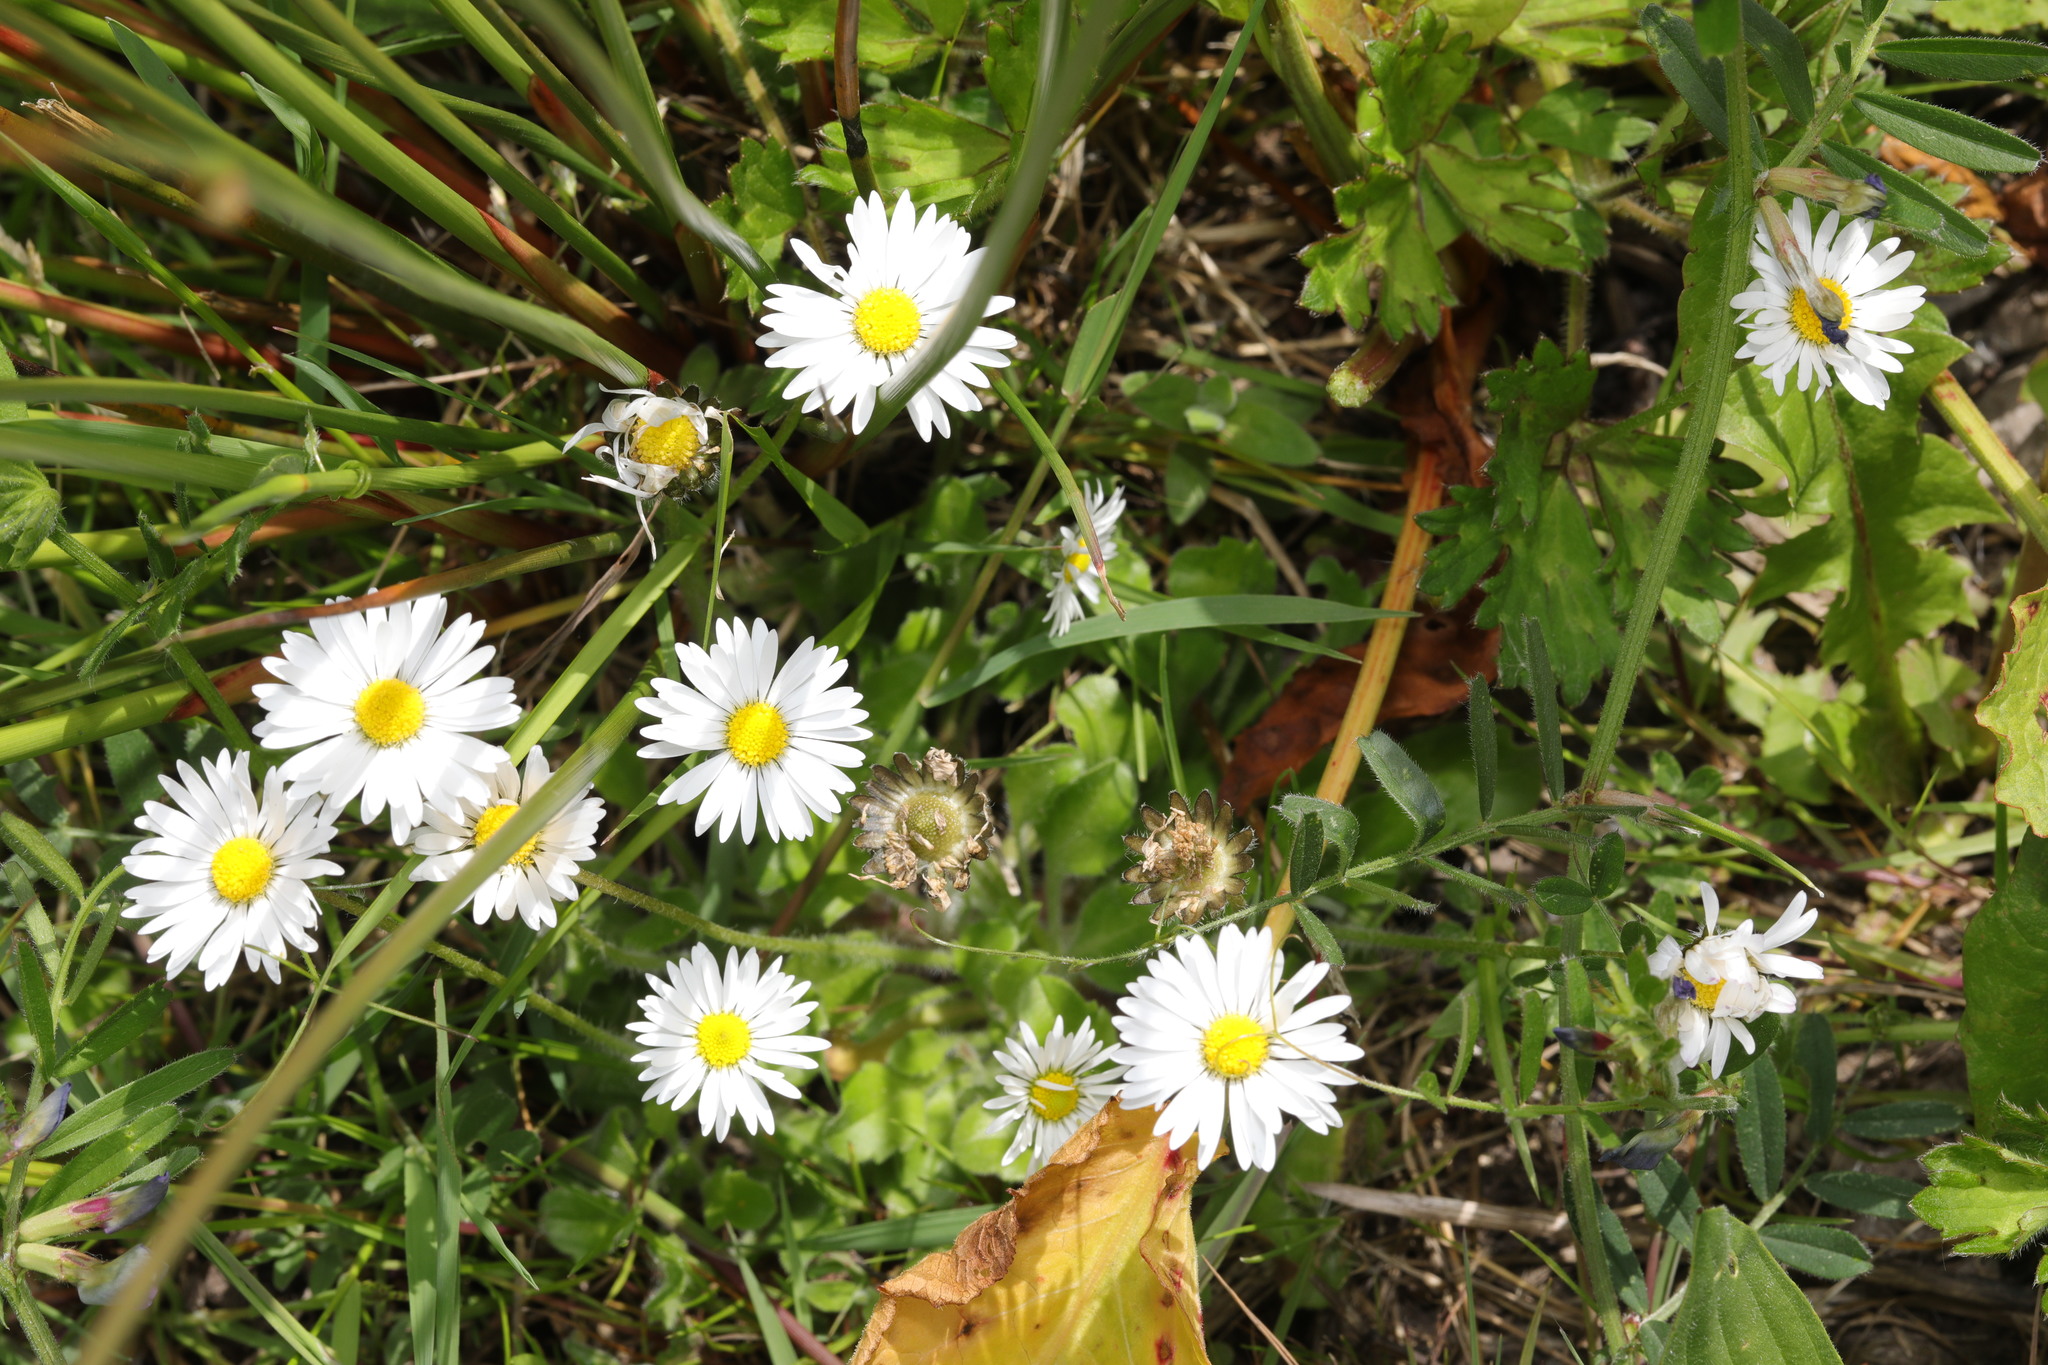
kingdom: Plantae
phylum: Tracheophyta
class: Magnoliopsida
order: Asterales
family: Asteraceae
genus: Bellis
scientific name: Bellis perennis
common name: Lawndaisy
